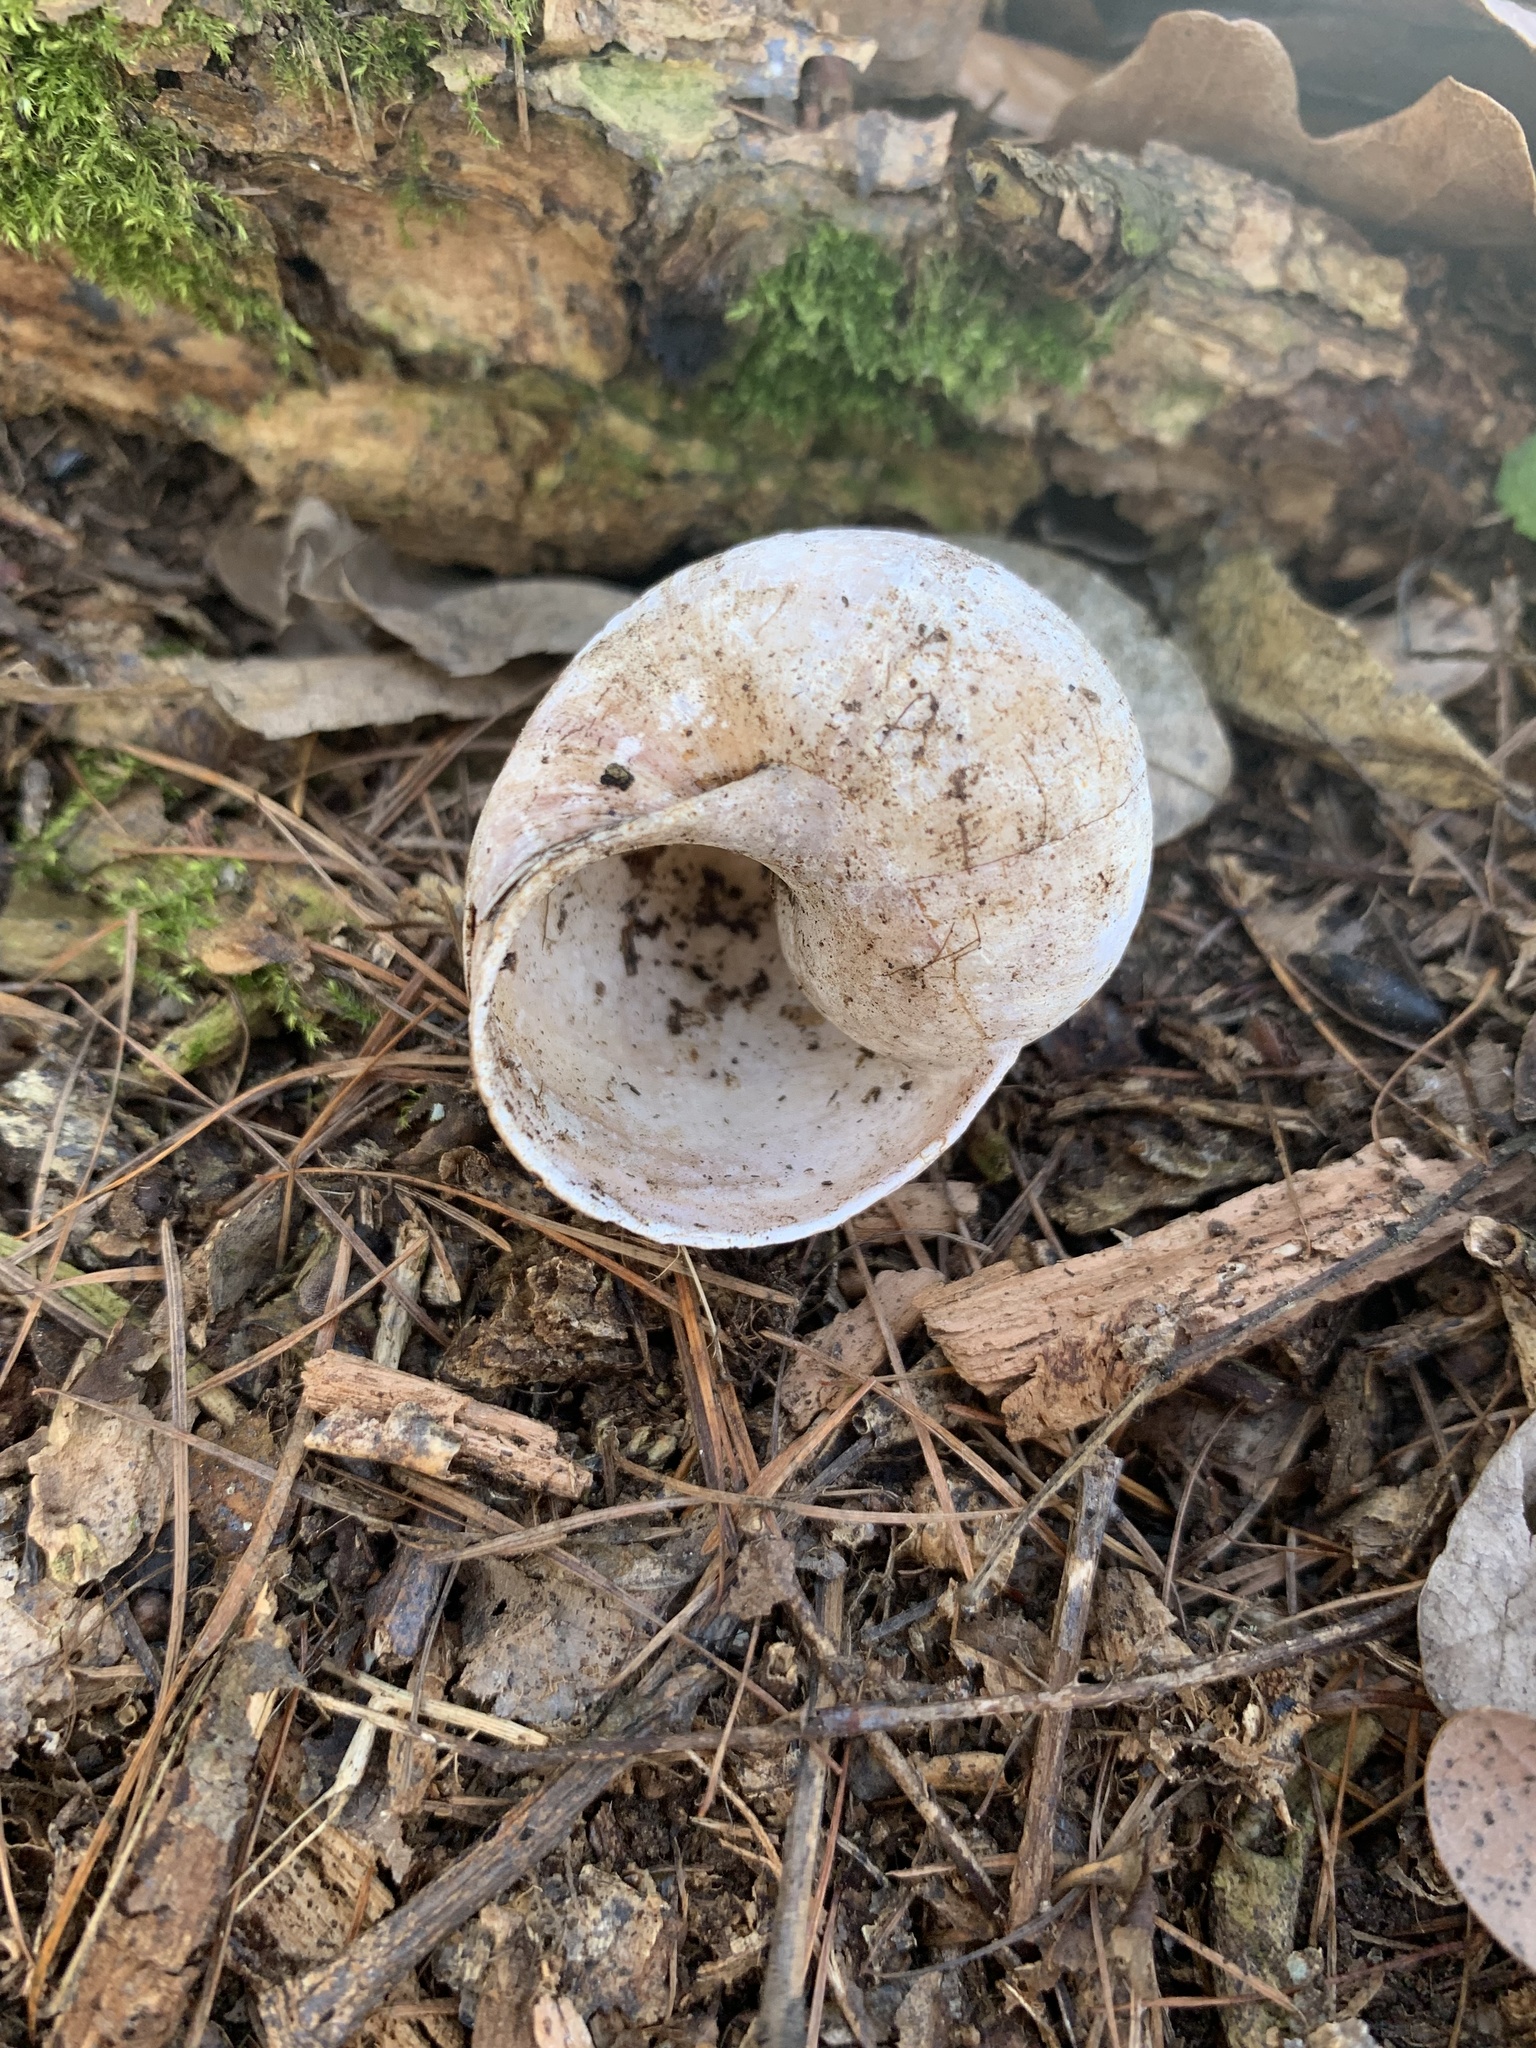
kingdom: Animalia
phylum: Mollusca
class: Gastropoda
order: Stylommatophora
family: Helicidae
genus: Helix
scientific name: Helix pomatia
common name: Roman snail
